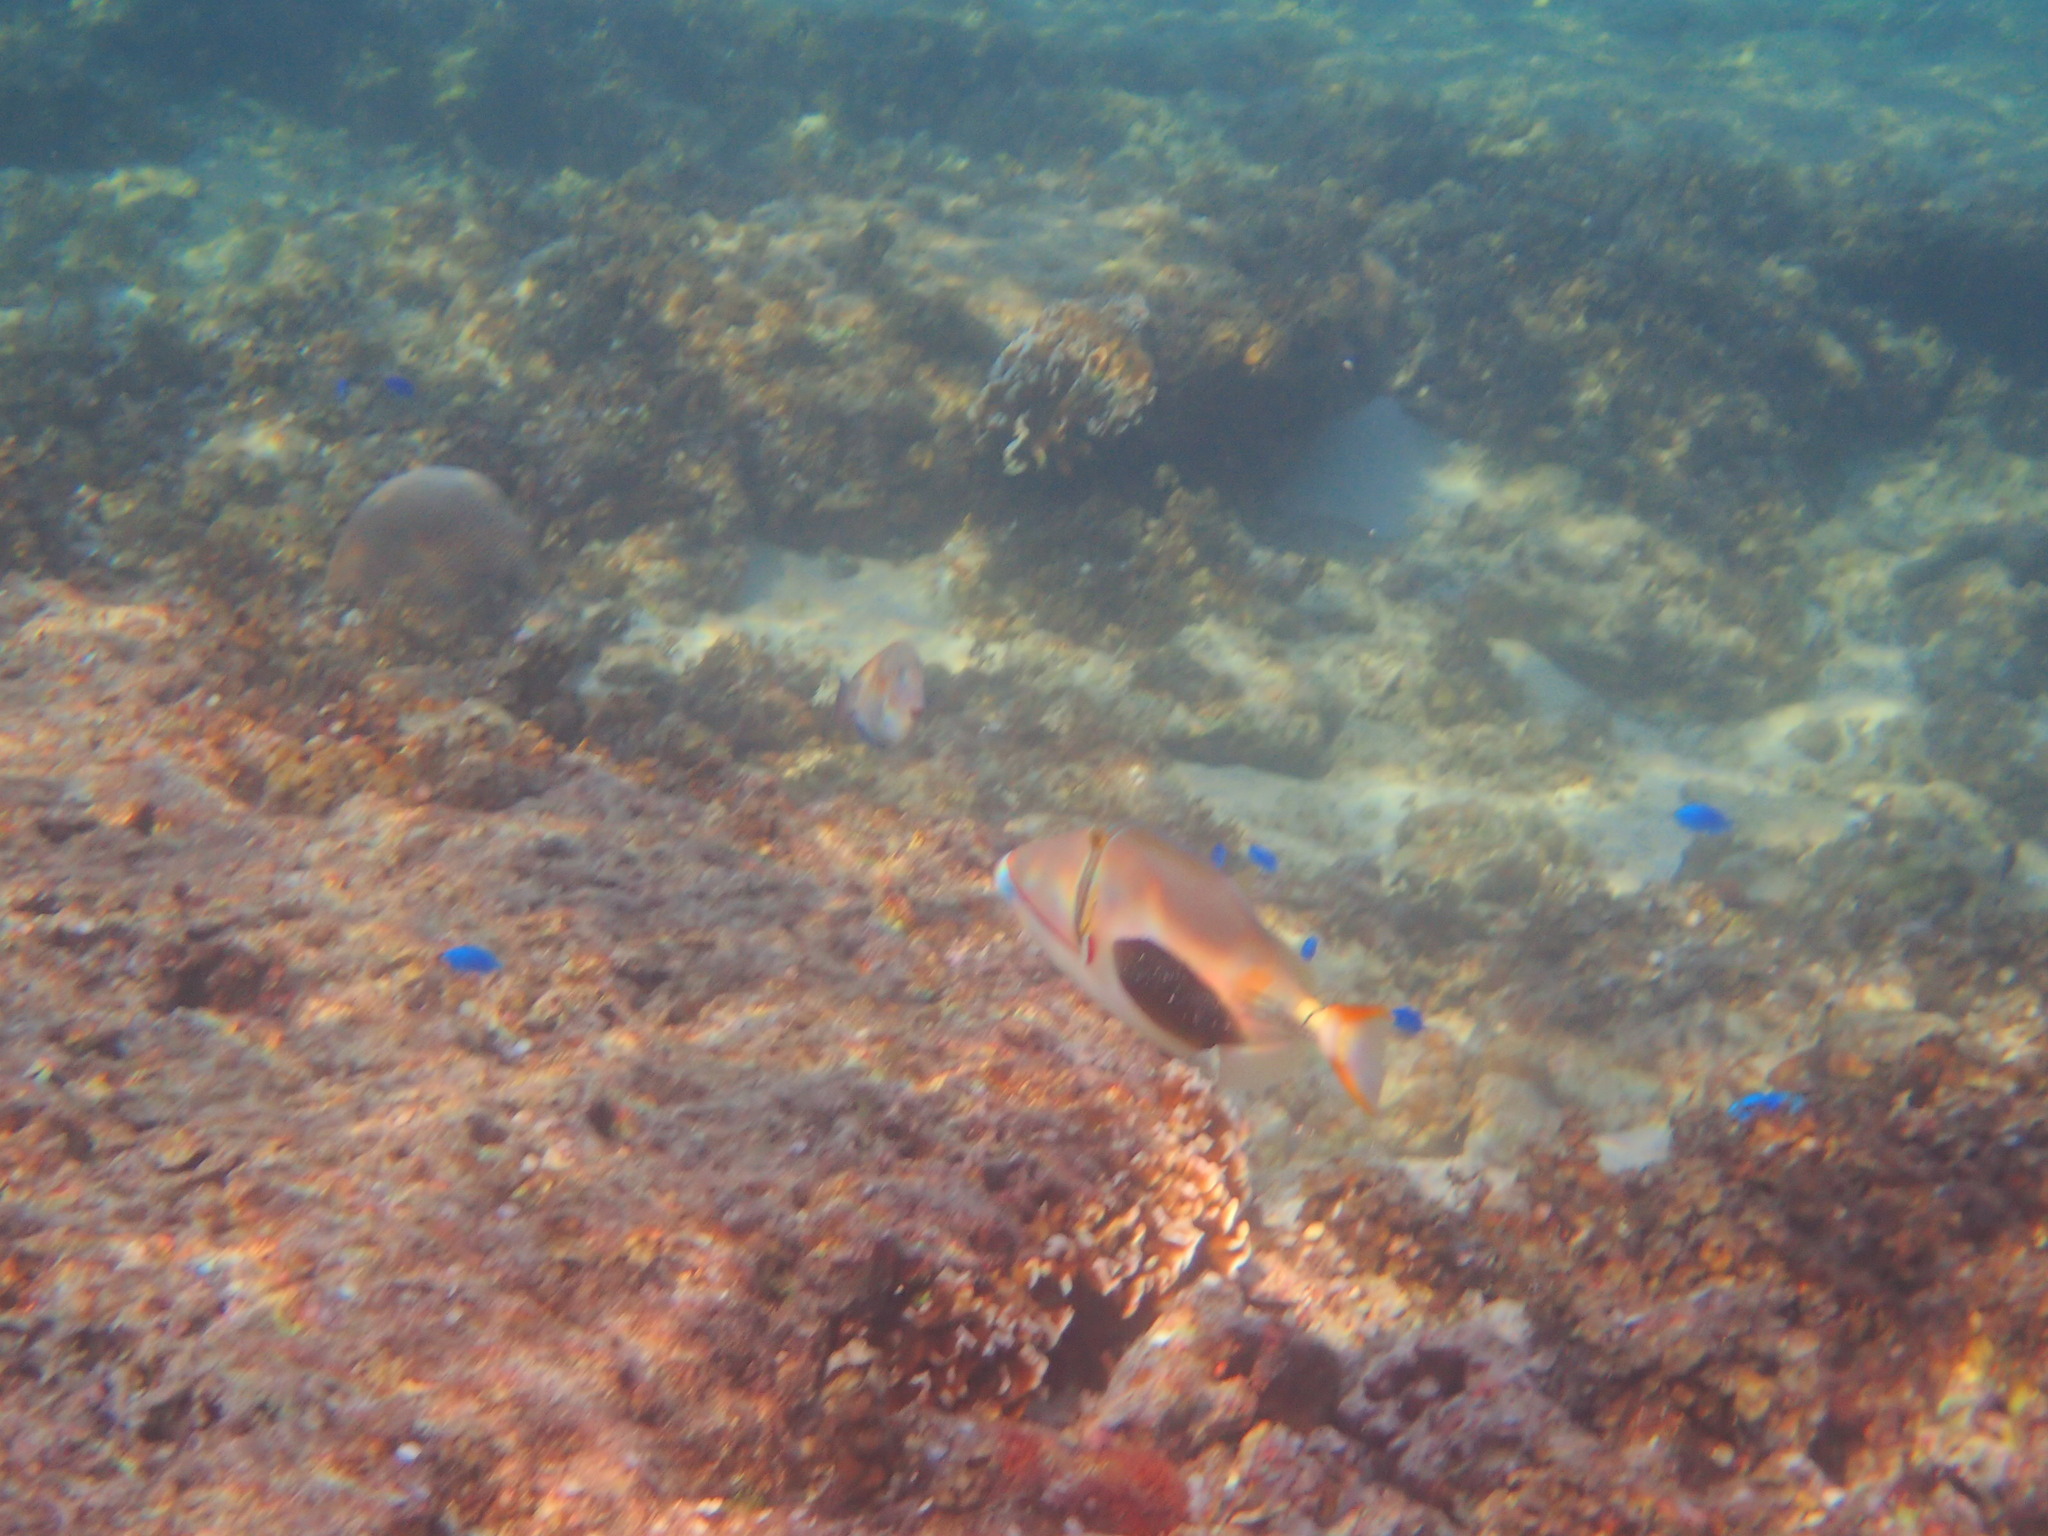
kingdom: Animalia
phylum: Chordata
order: Tetraodontiformes
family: Balistidae
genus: Rhinecanthus
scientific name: Rhinecanthus verrucosus
